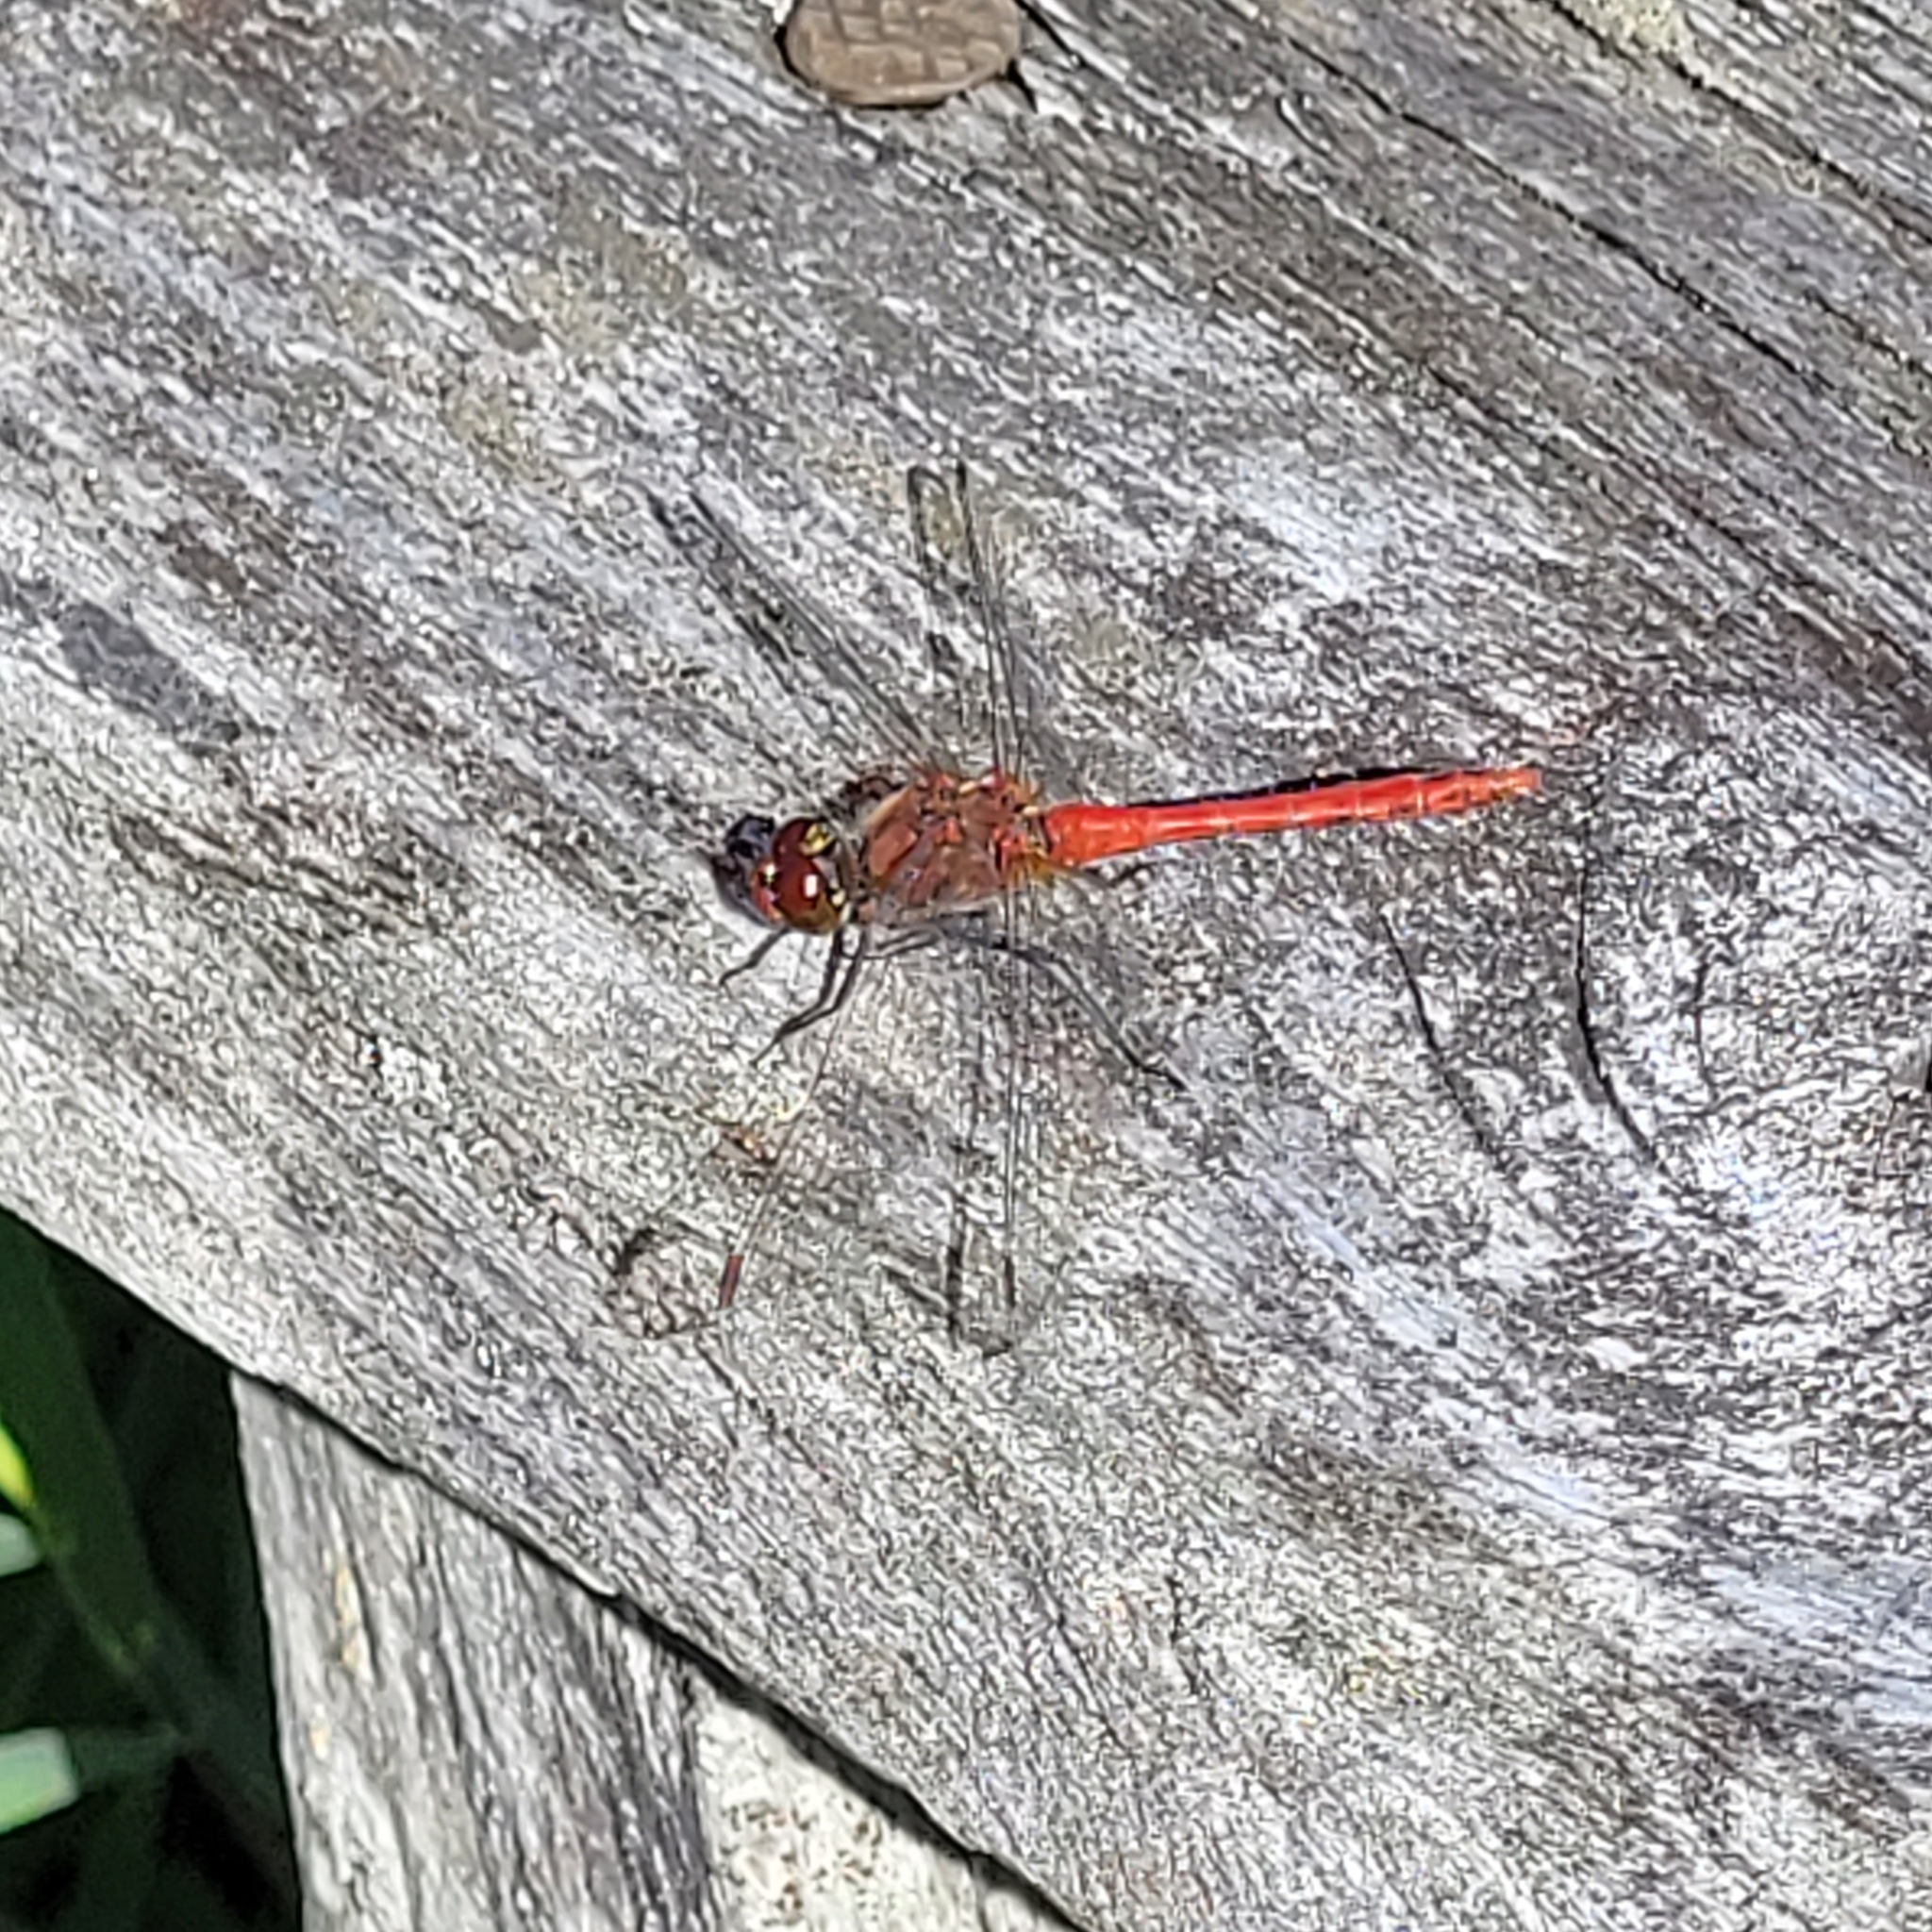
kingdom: Animalia
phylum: Arthropoda
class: Insecta
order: Odonata
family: Libellulidae
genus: Sympetrum
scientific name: Sympetrum sanguineum
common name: Ruddy darter
